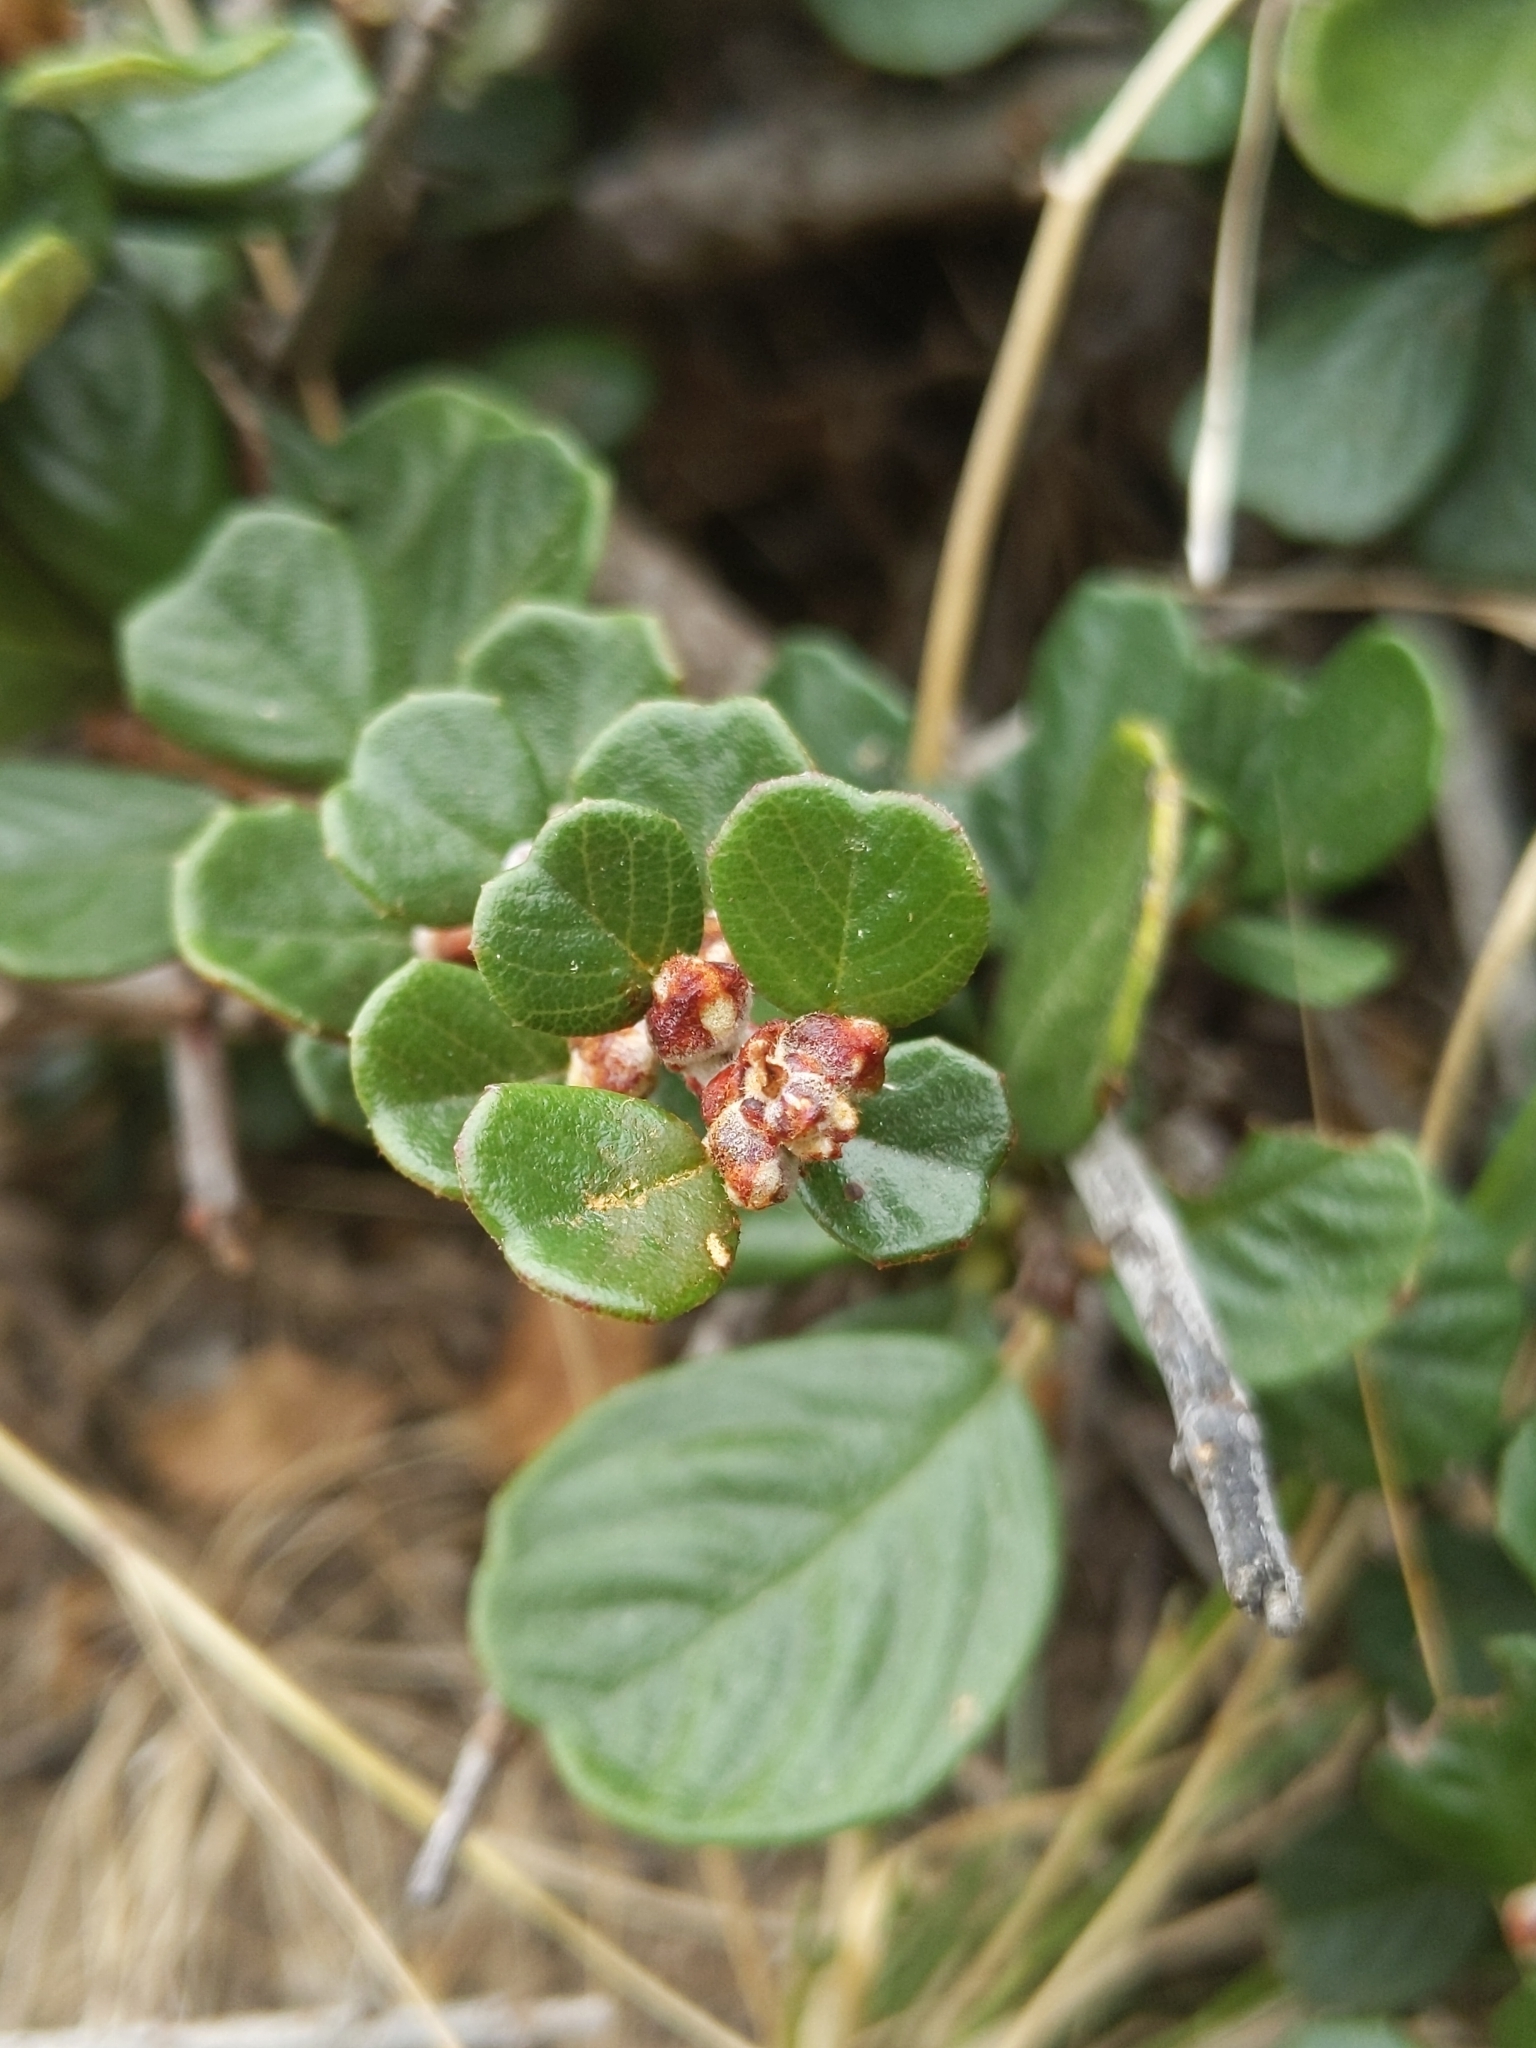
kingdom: Plantae
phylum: Tracheophyta
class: Magnoliopsida
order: Rosales
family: Rhamnaceae
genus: Ceanothus
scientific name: Ceanothus maritimus
